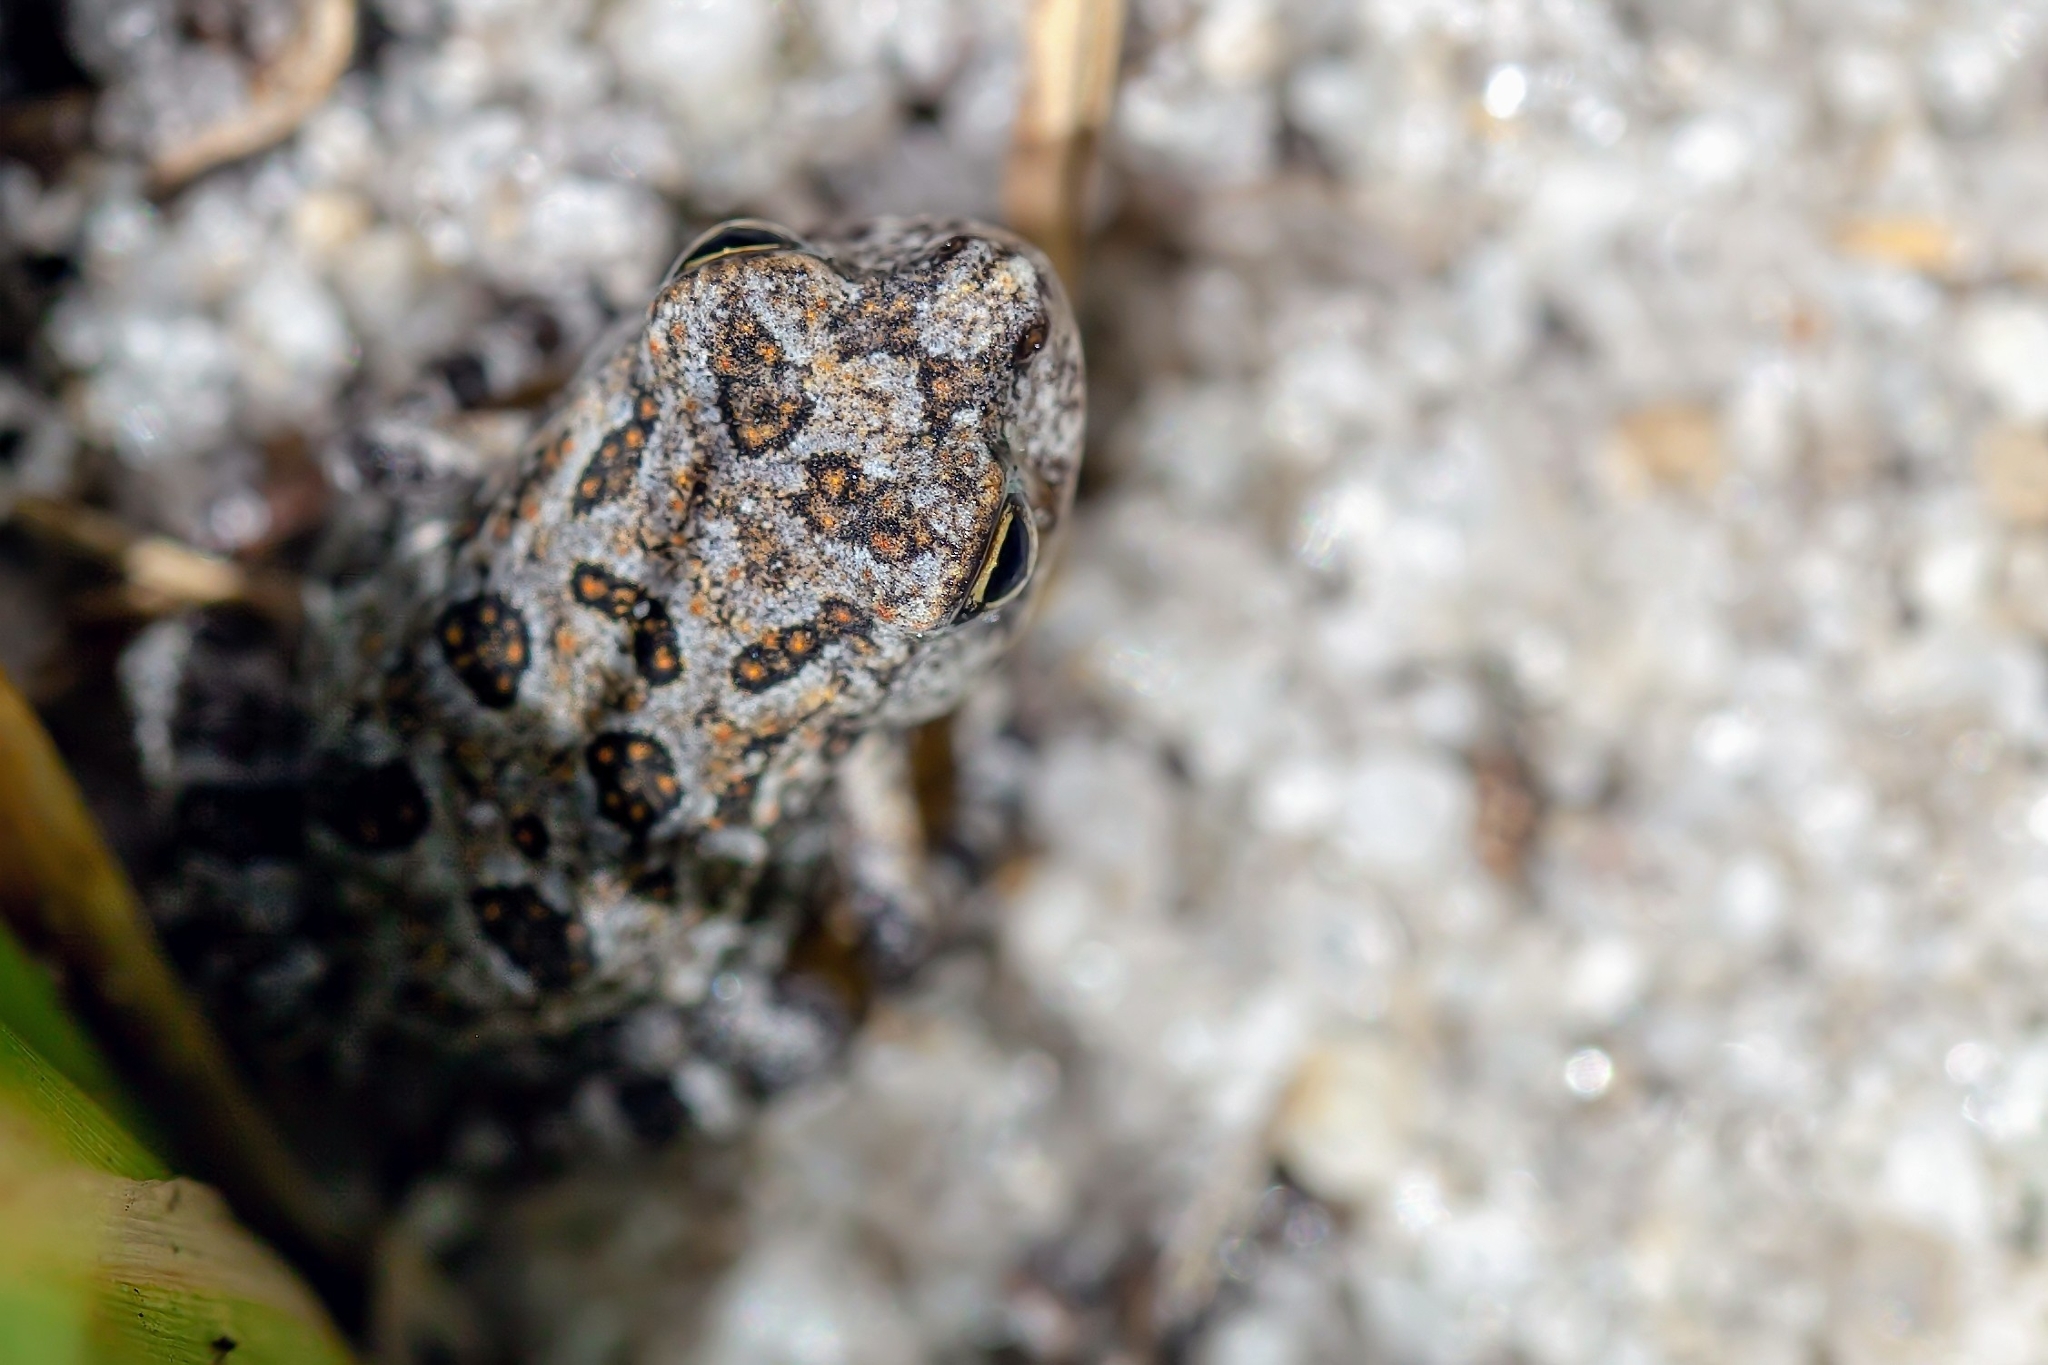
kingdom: Animalia
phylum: Chordata
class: Amphibia
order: Anura
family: Bufonidae
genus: Anaxyrus
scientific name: Anaxyrus terrestris
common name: Southern toad
